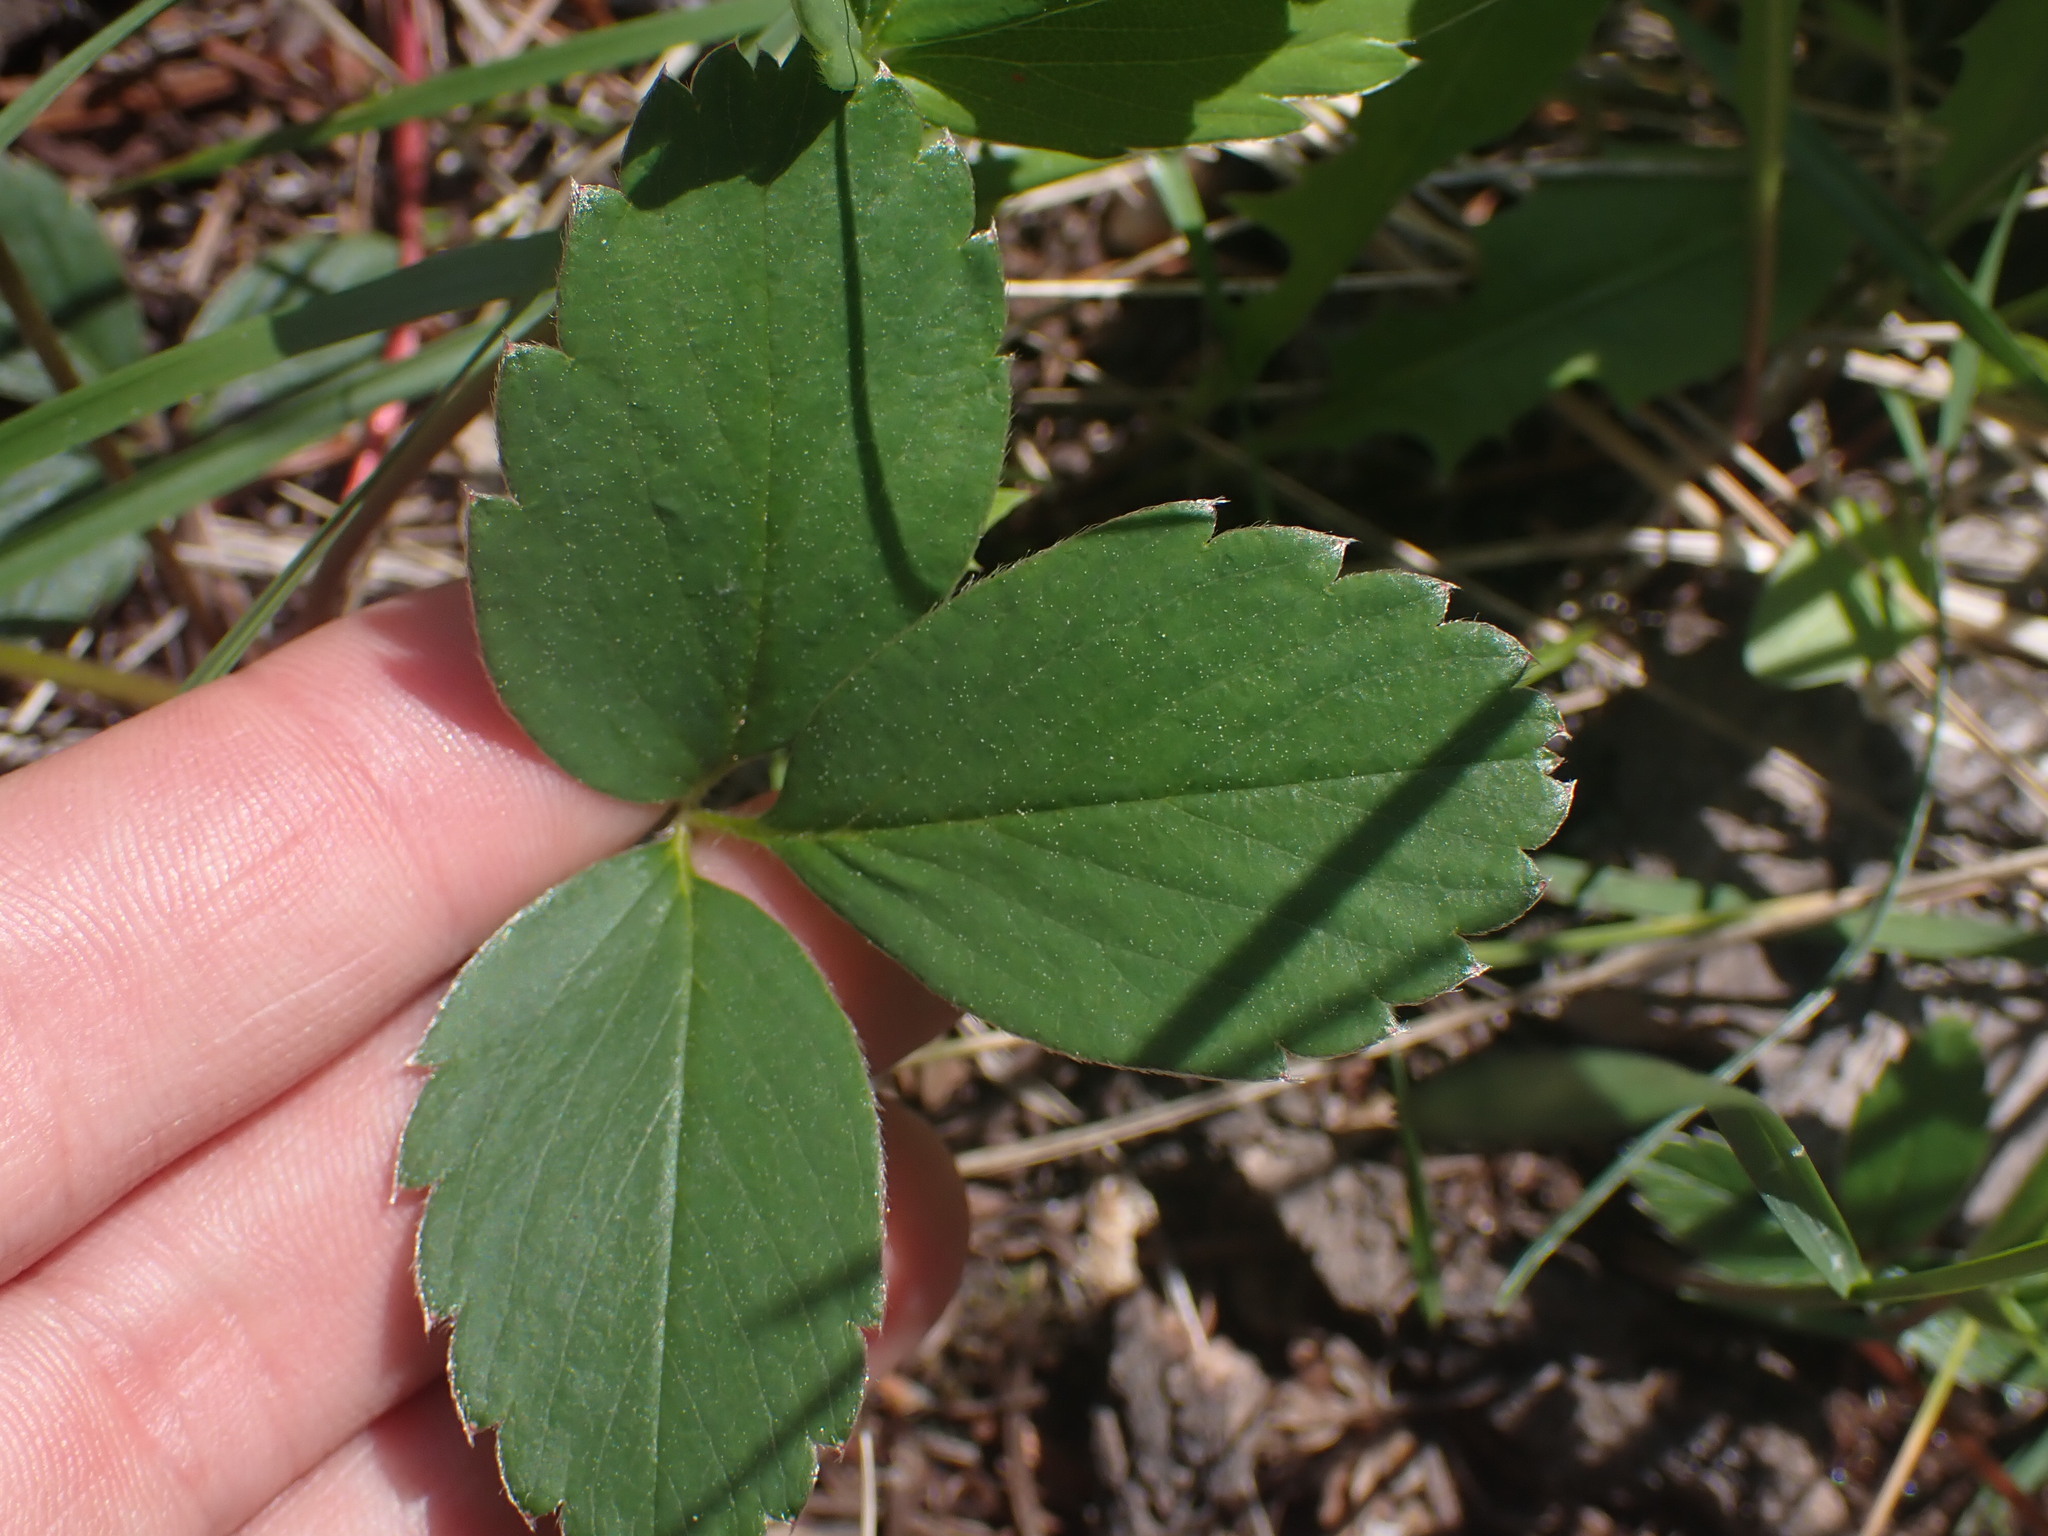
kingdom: Plantae
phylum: Tracheophyta
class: Magnoliopsida
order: Rosales
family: Rosaceae
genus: Fragaria
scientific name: Fragaria virginiana
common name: Thickleaved wild strawberry
